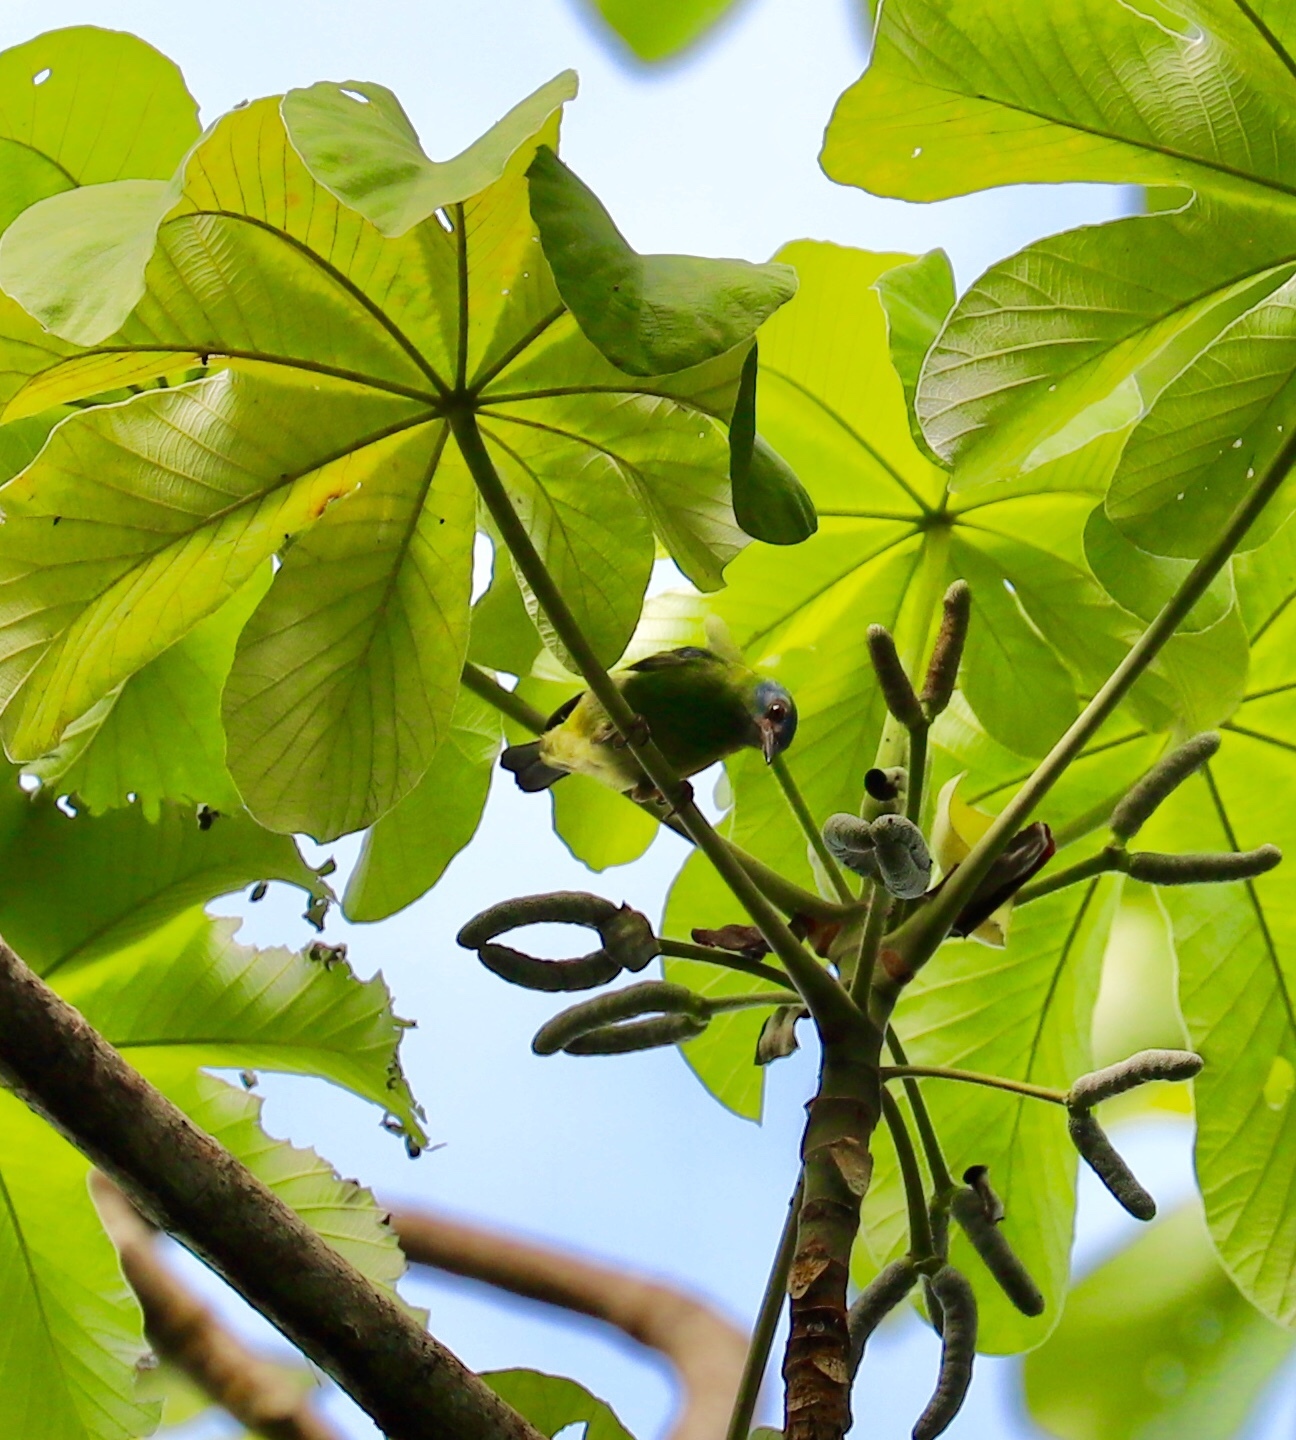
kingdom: Animalia
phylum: Chordata
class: Aves
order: Passeriformes
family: Thraupidae
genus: Dacnis
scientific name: Dacnis cayana
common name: Blue dacnis
